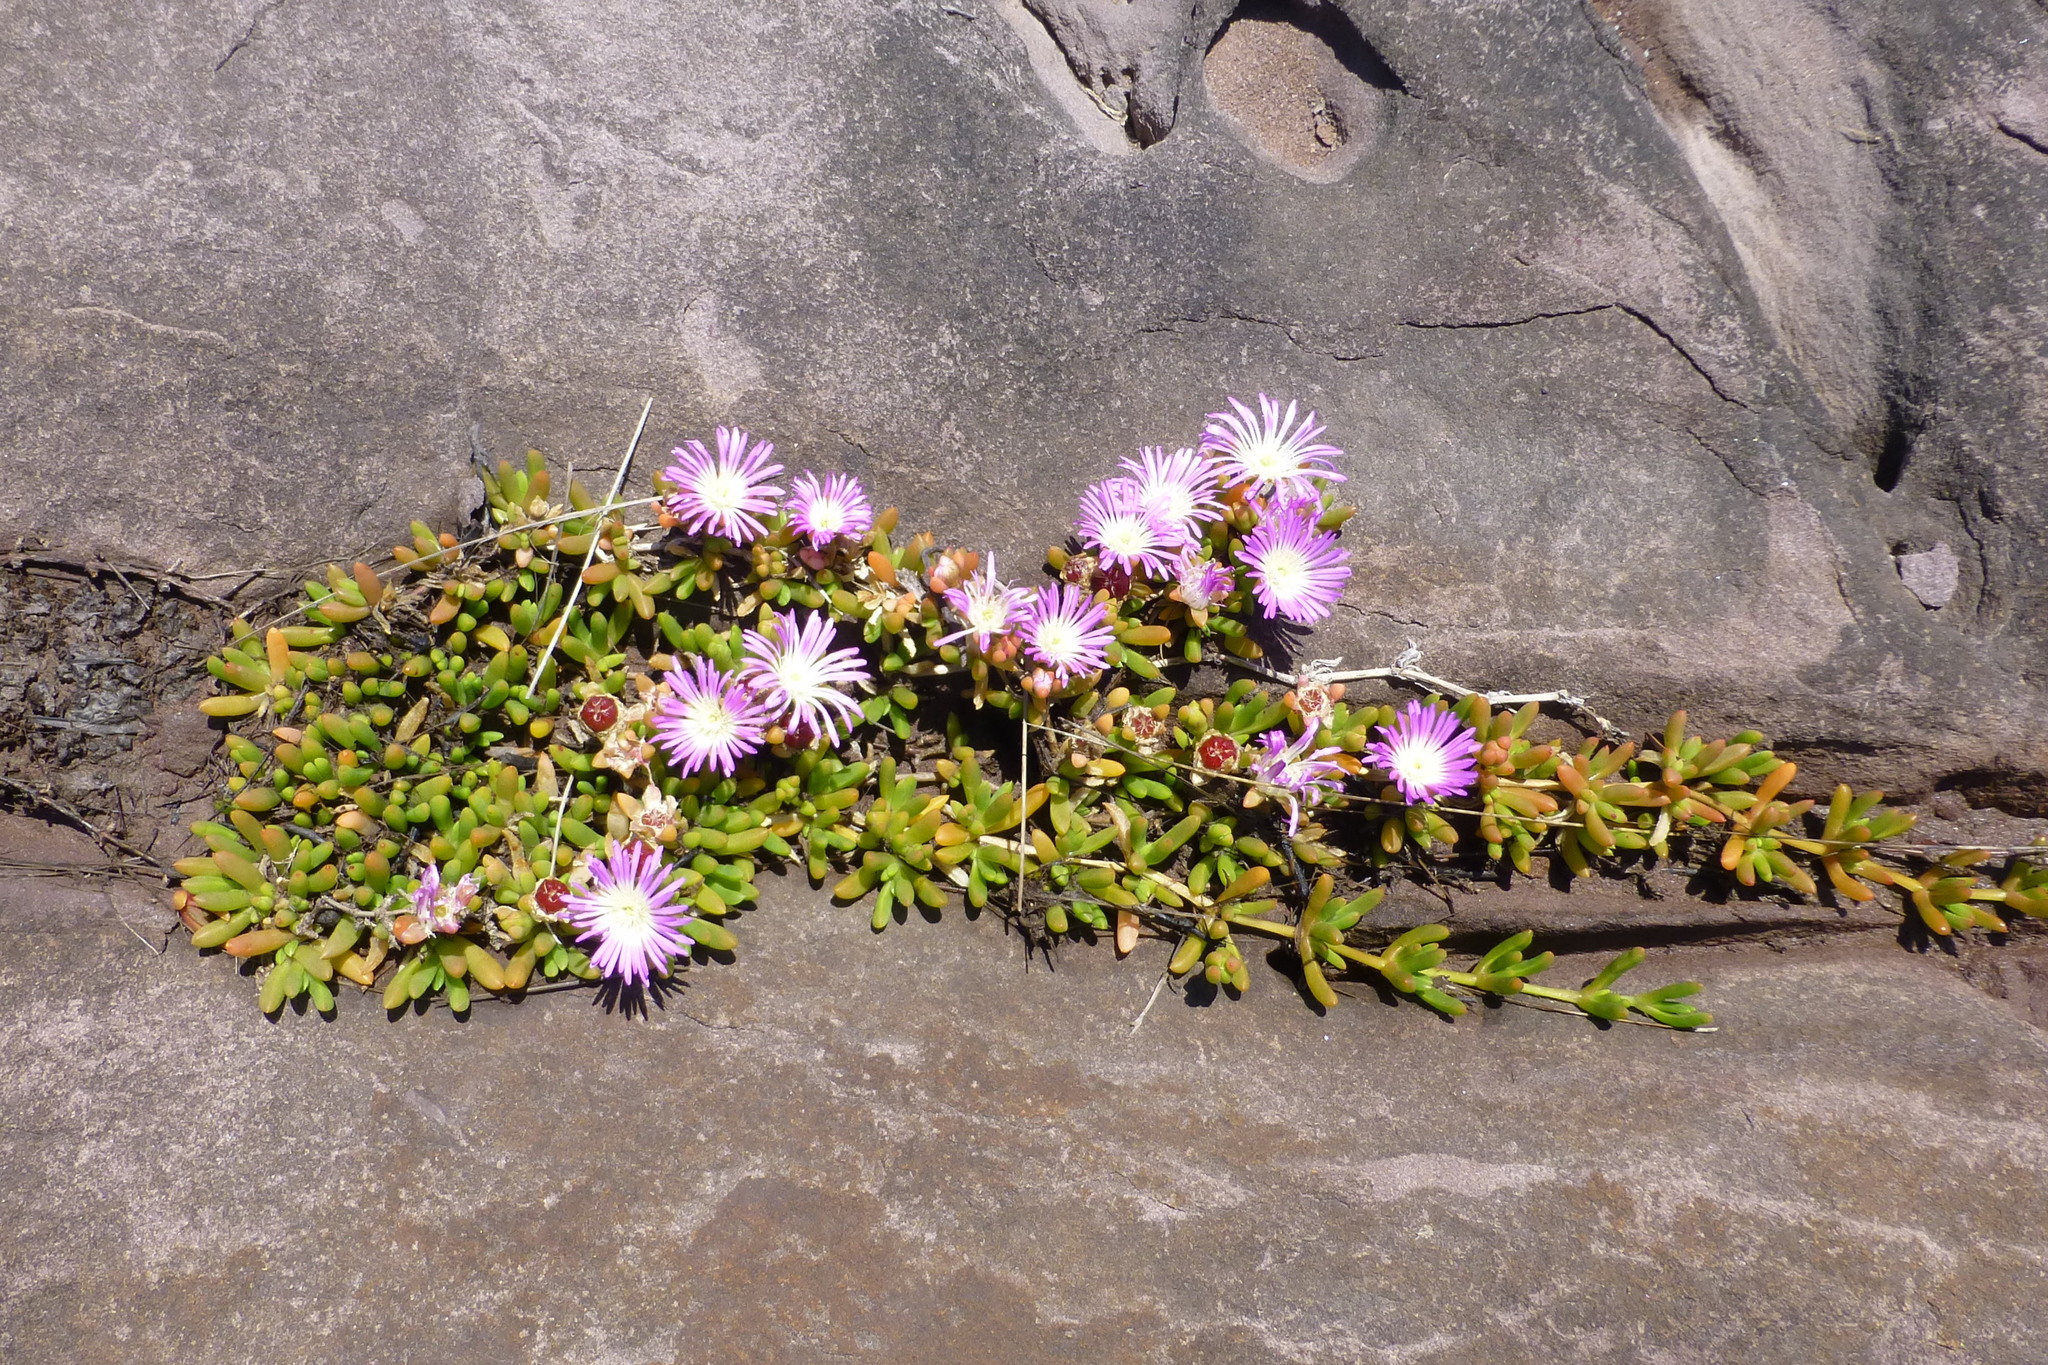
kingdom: Plantae
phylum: Tracheophyta
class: Magnoliopsida
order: Caryophyllales
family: Aizoaceae
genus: Disphyma
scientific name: Disphyma clavellatum
